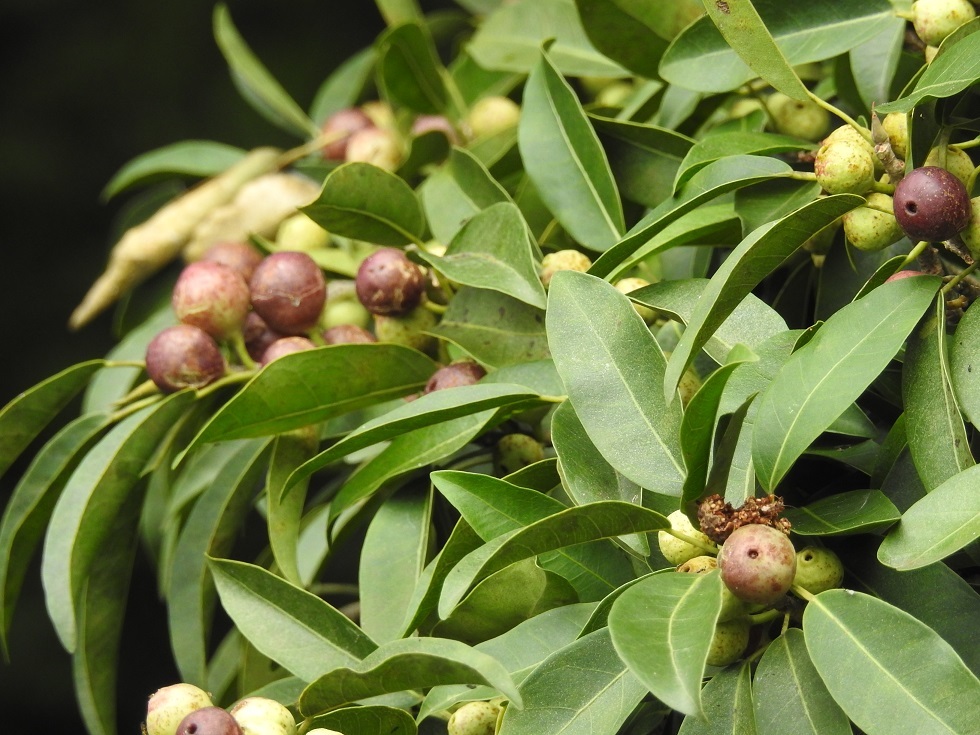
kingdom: Plantae
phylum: Tracheophyta
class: Magnoliopsida
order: Rosales
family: Moraceae
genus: Ficus
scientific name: Ficus pertusa
